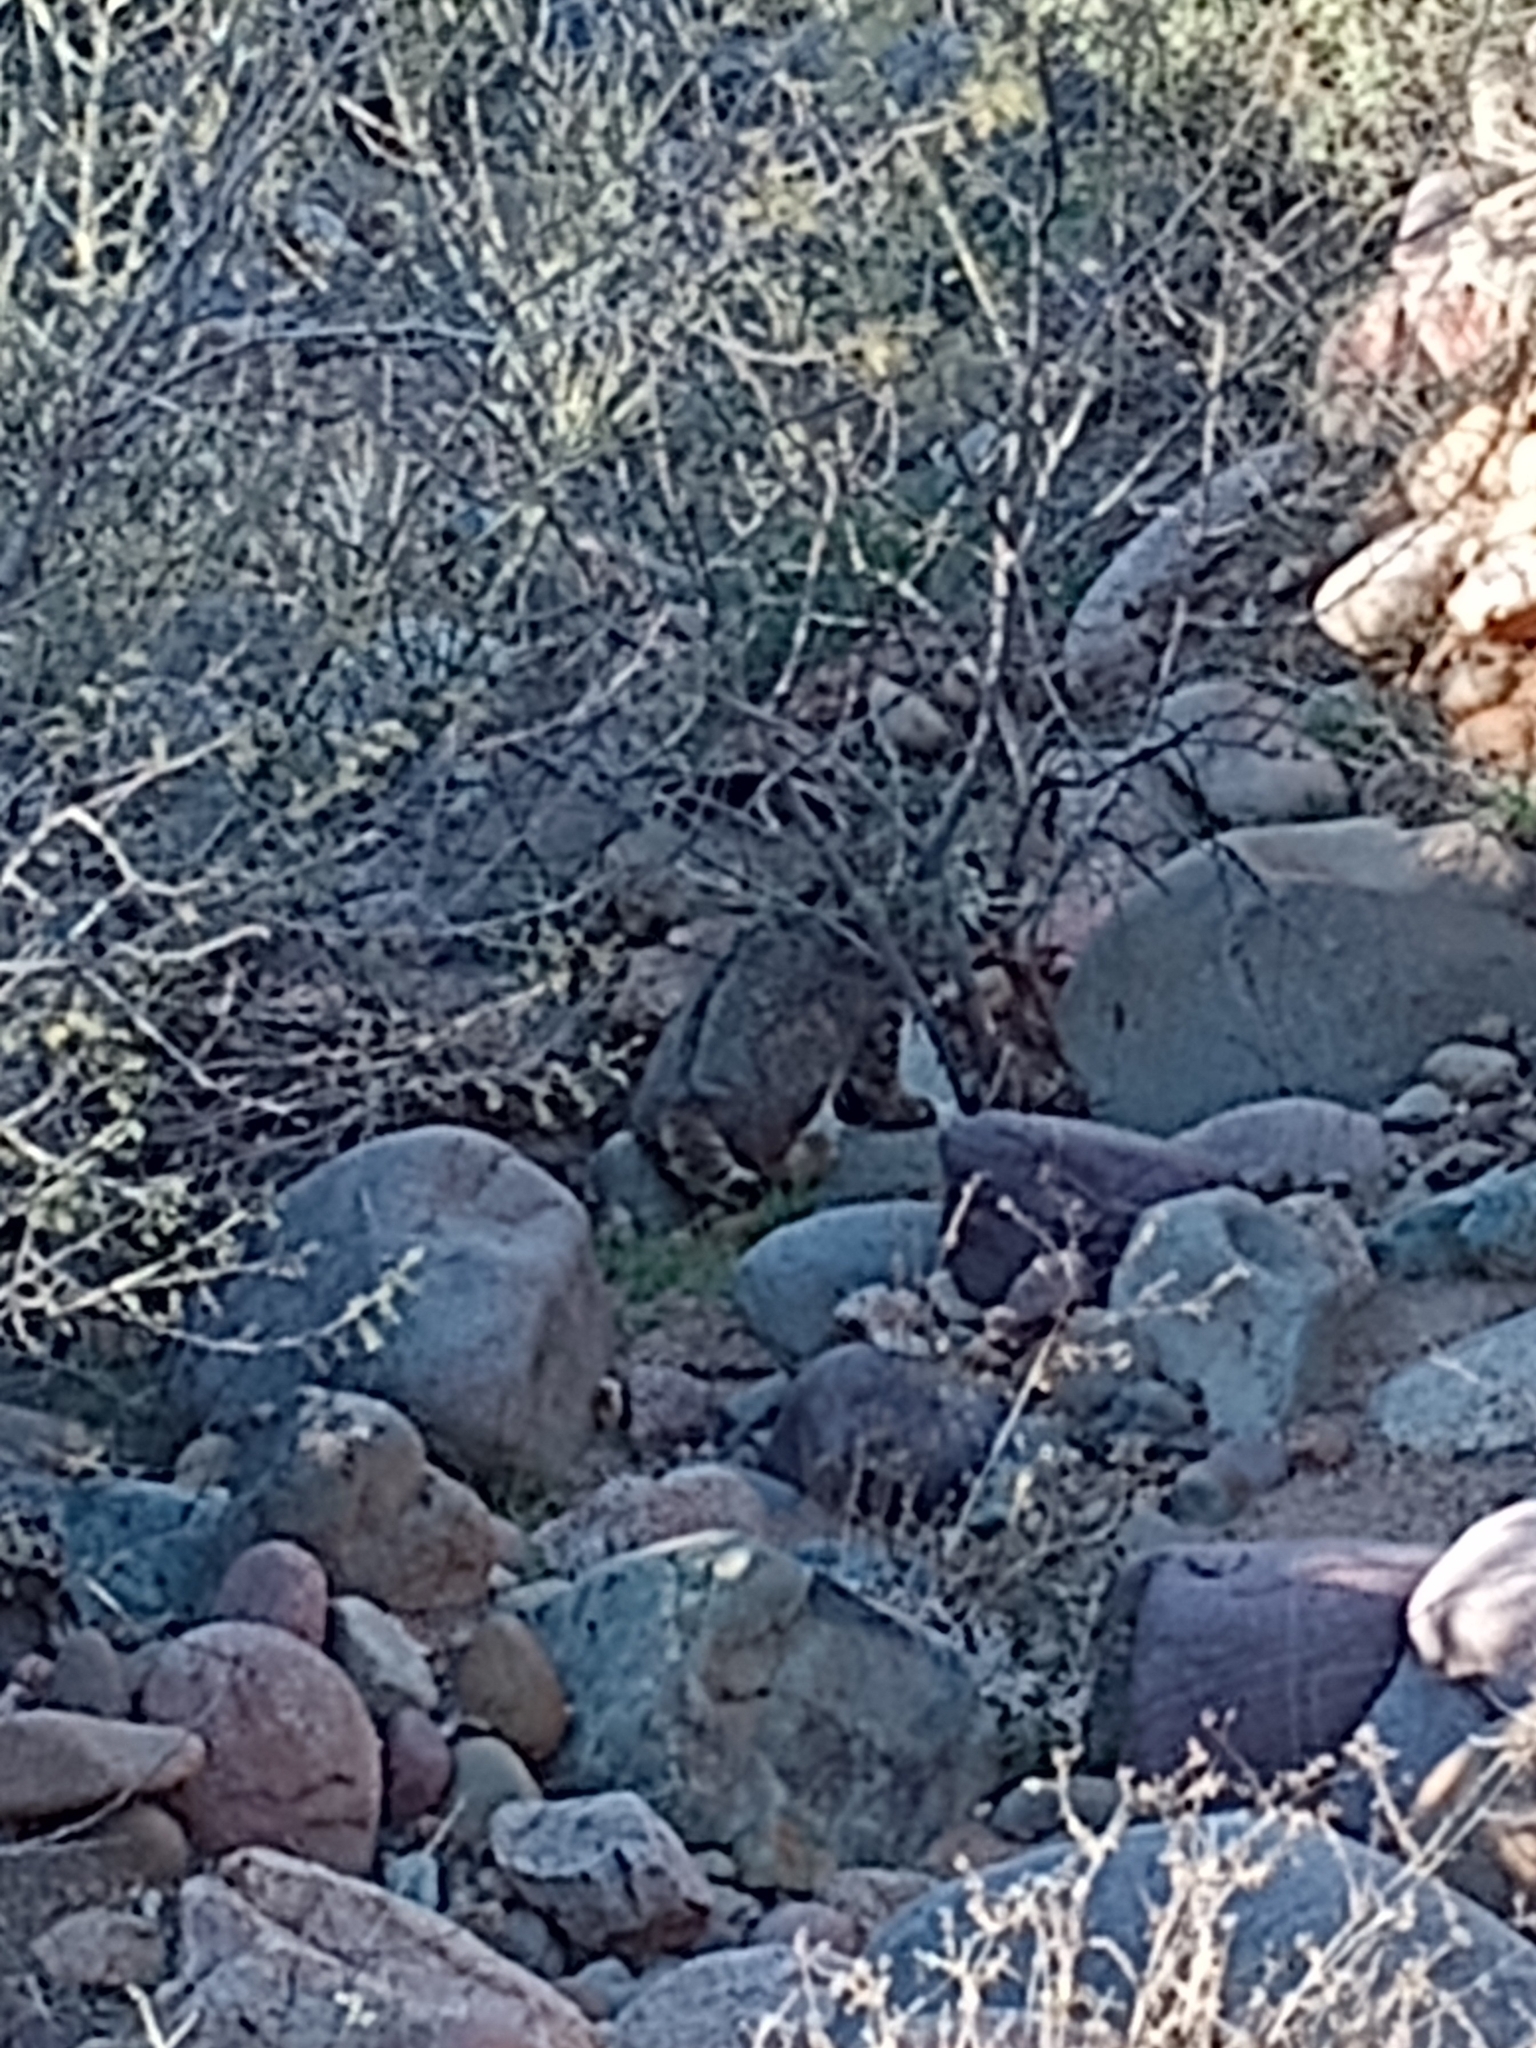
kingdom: Animalia
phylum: Chordata
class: Mammalia
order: Carnivora
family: Felidae
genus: Lynx
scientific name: Lynx rufus
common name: Bobcat
